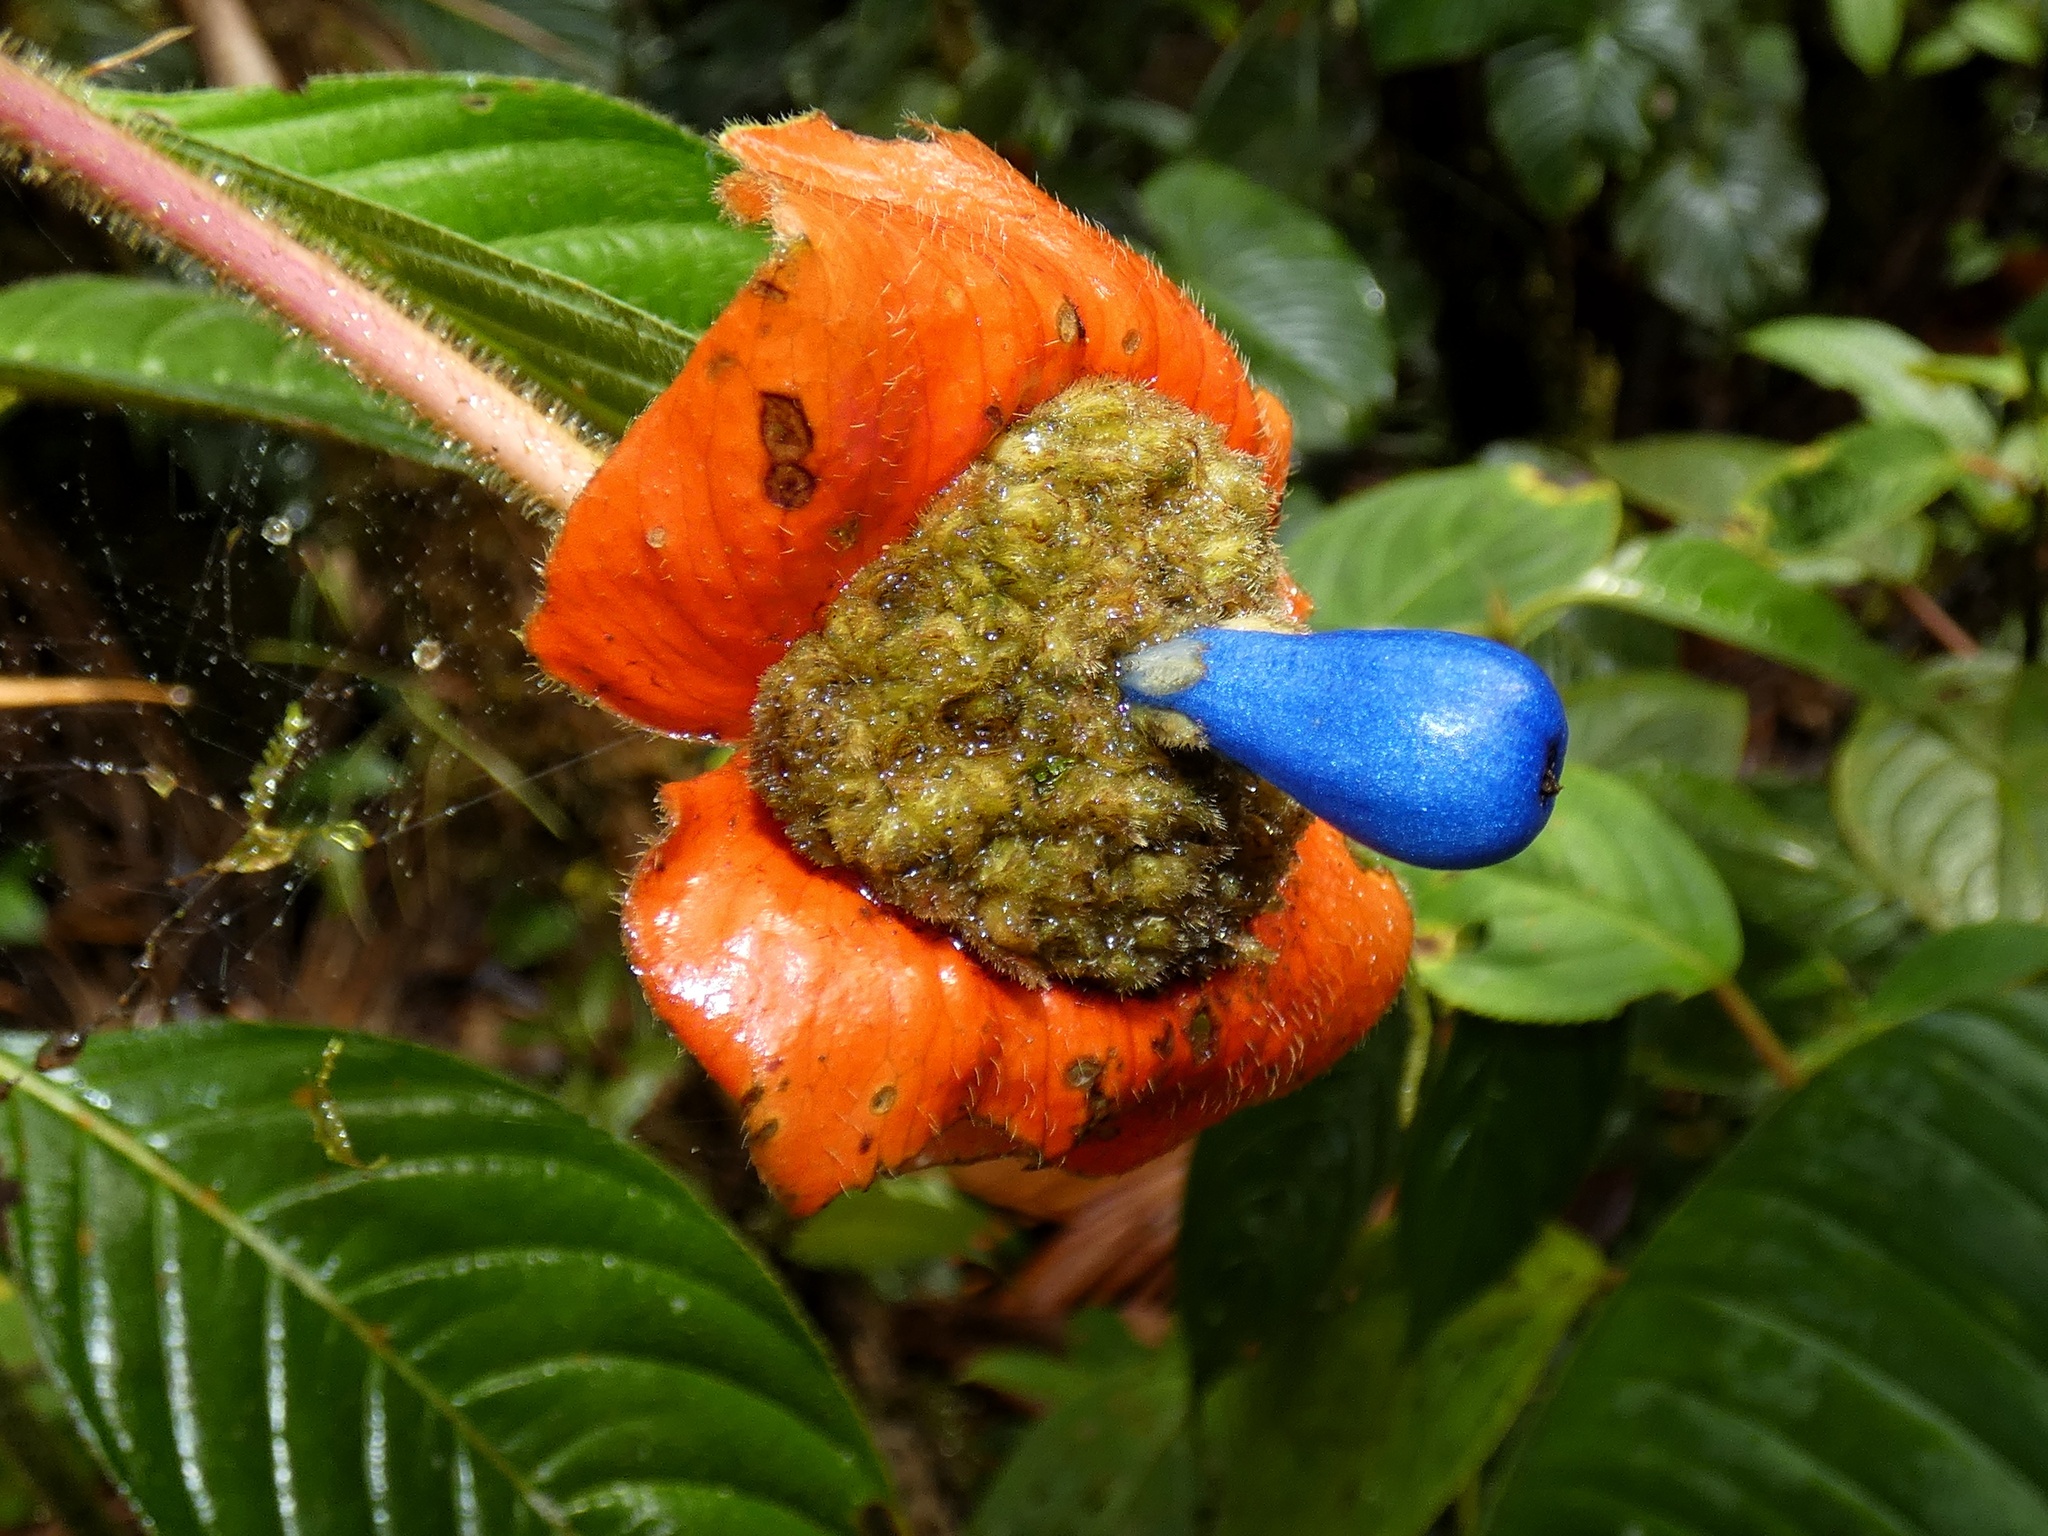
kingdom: Plantae
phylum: Tracheophyta
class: Magnoliopsida
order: Gentianales
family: Rubiaceae
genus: Palicourea
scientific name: Palicourea tomentosa
